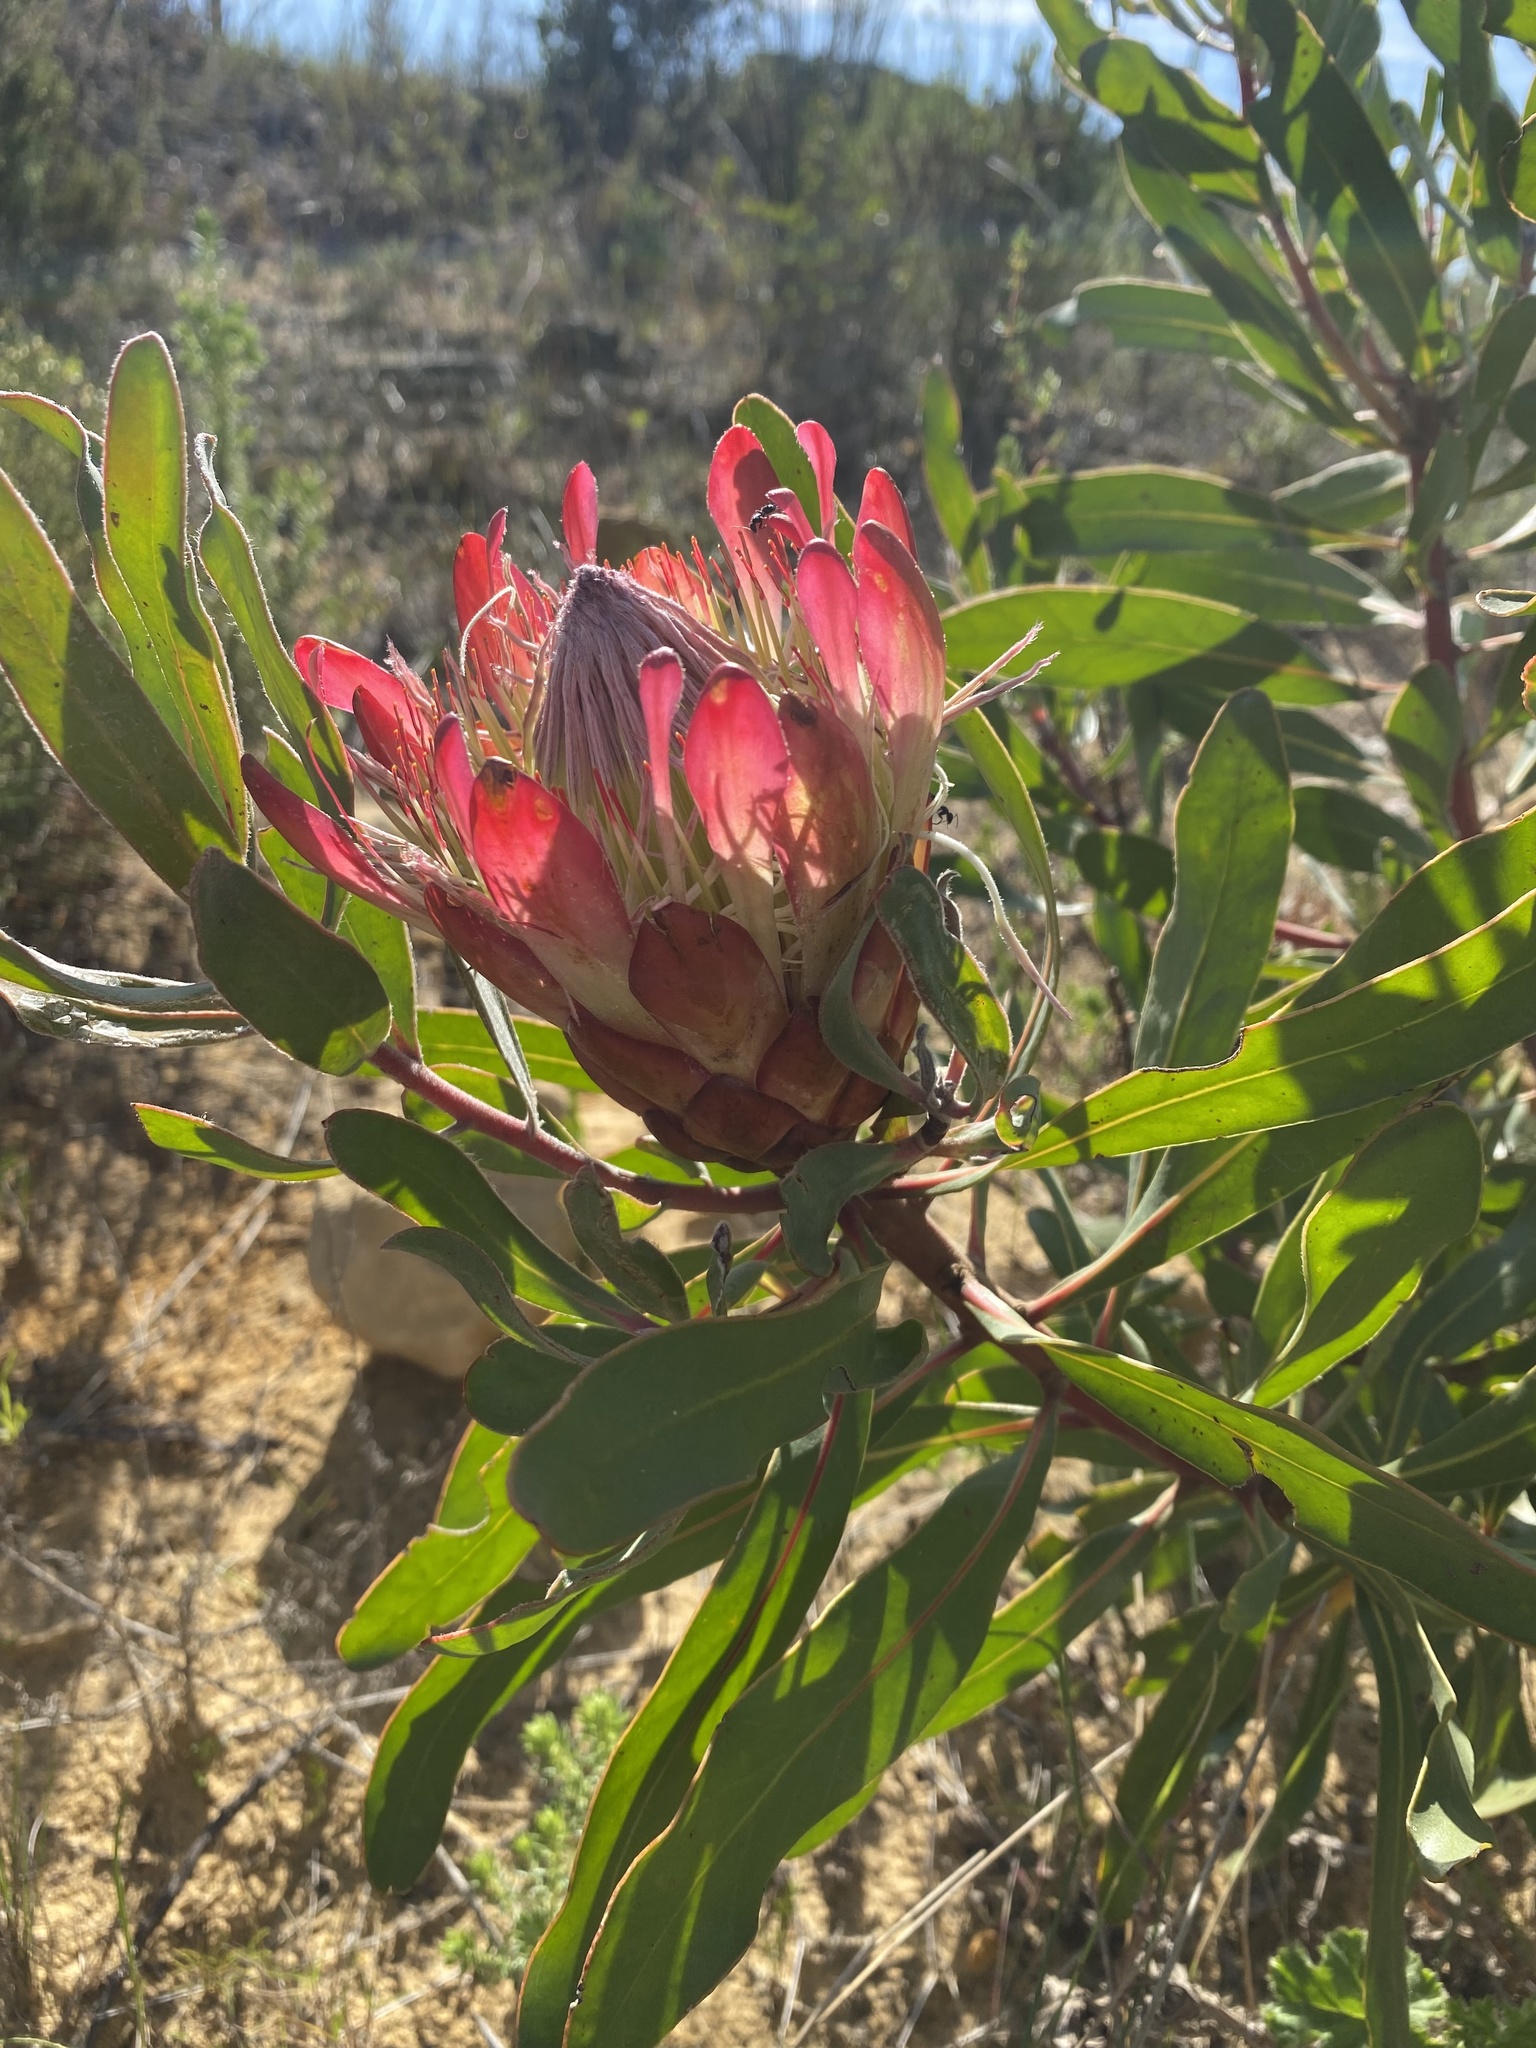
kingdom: Plantae
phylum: Tracheophyta
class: Magnoliopsida
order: Proteales
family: Proteaceae
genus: Protea
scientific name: Protea susannae
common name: Foetid-leaf sugarbush
